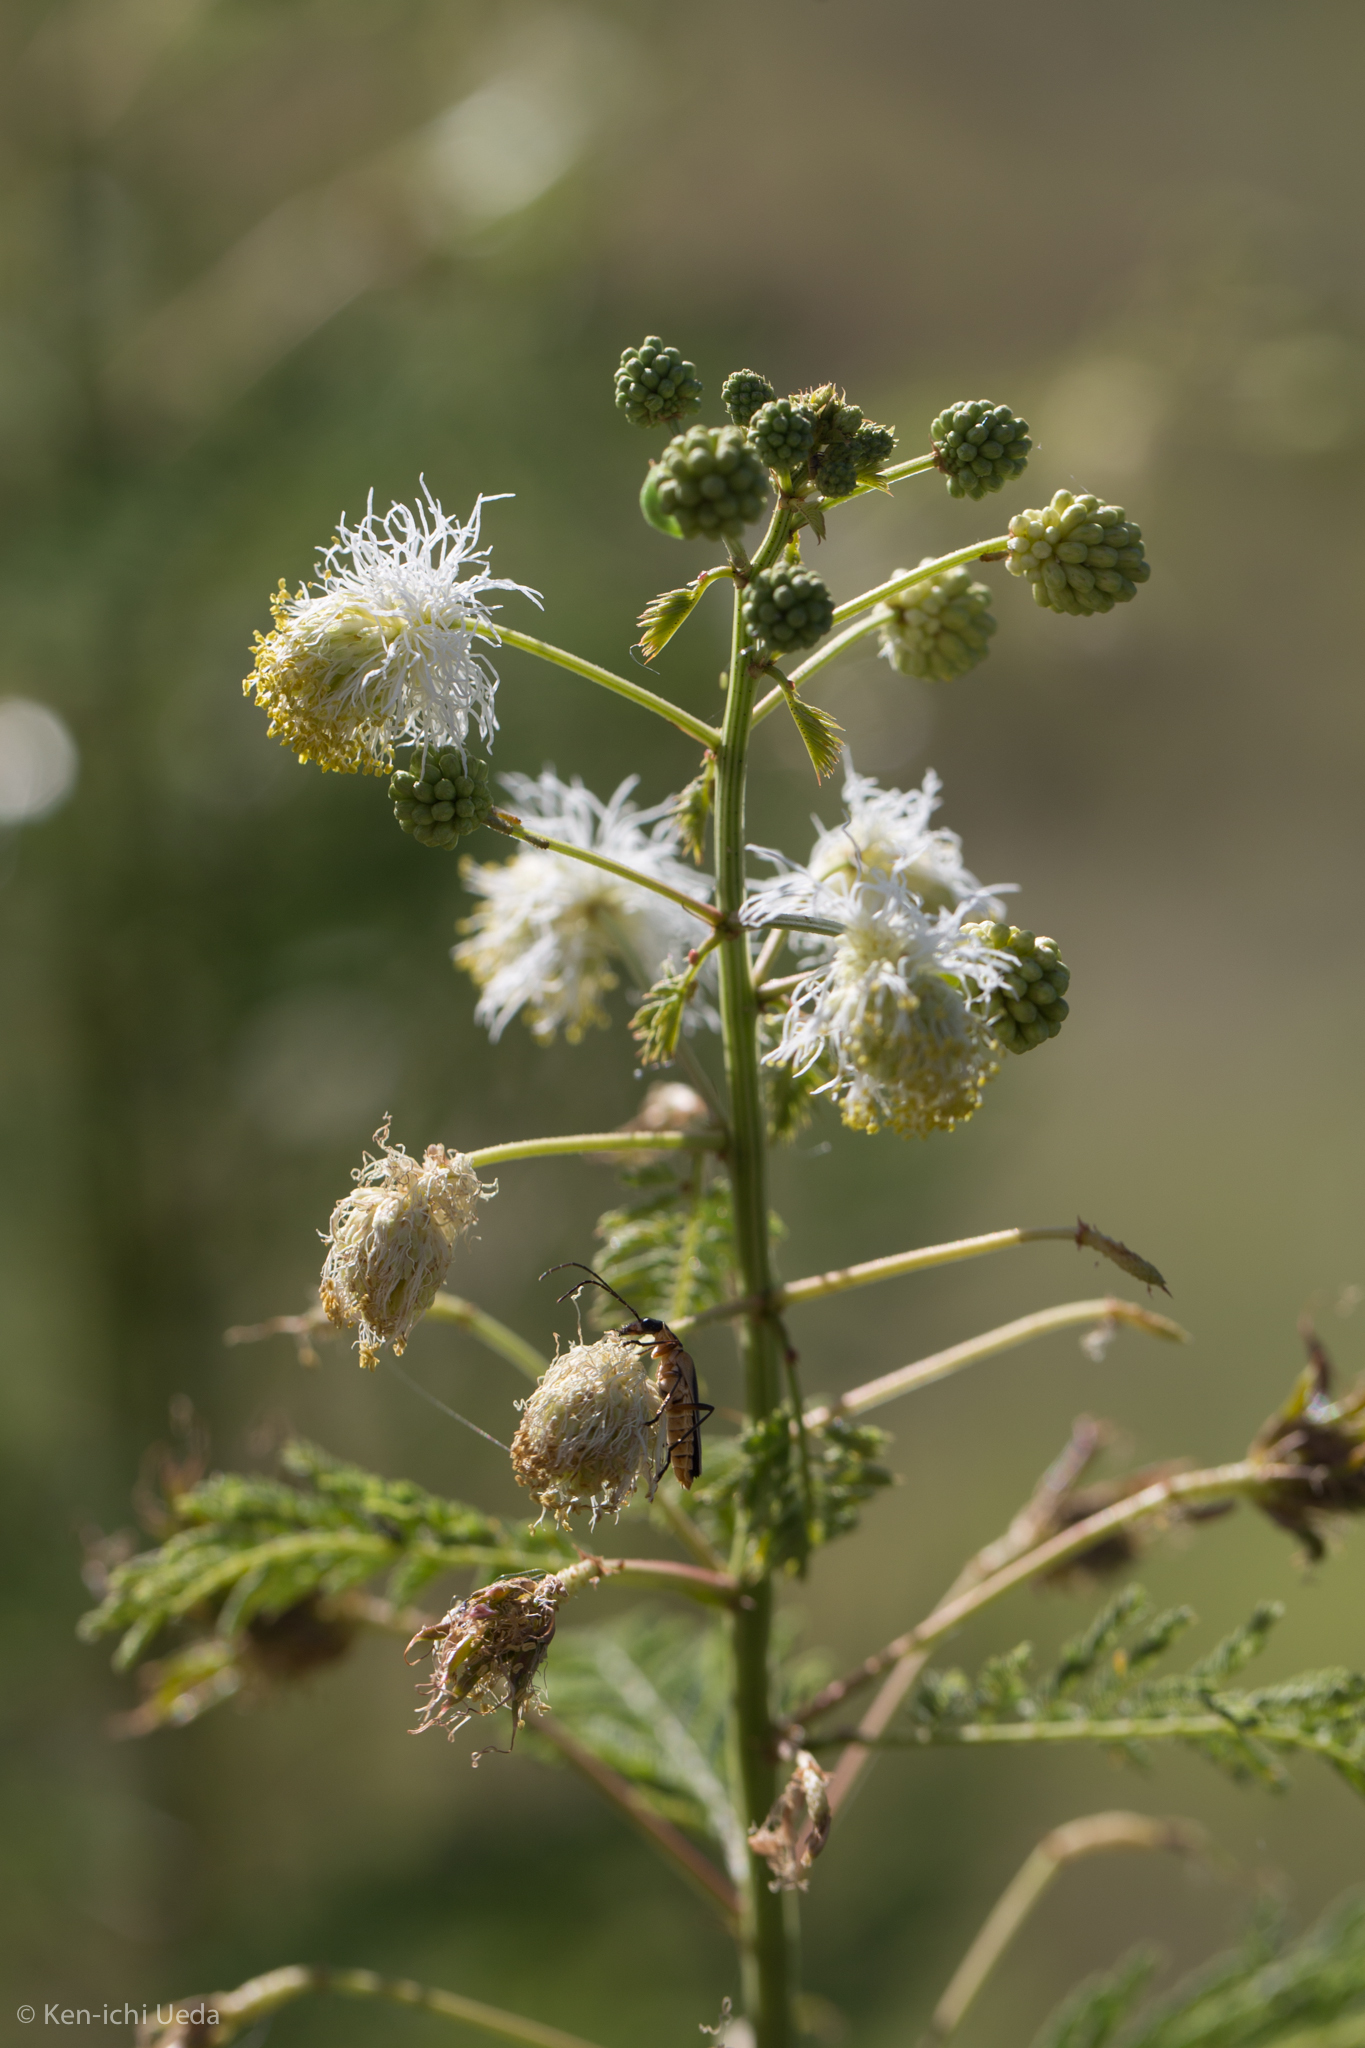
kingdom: Plantae
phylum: Tracheophyta
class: Magnoliopsida
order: Fabales
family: Fabaceae
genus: Desmanthus
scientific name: Desmanthus bicornutus
